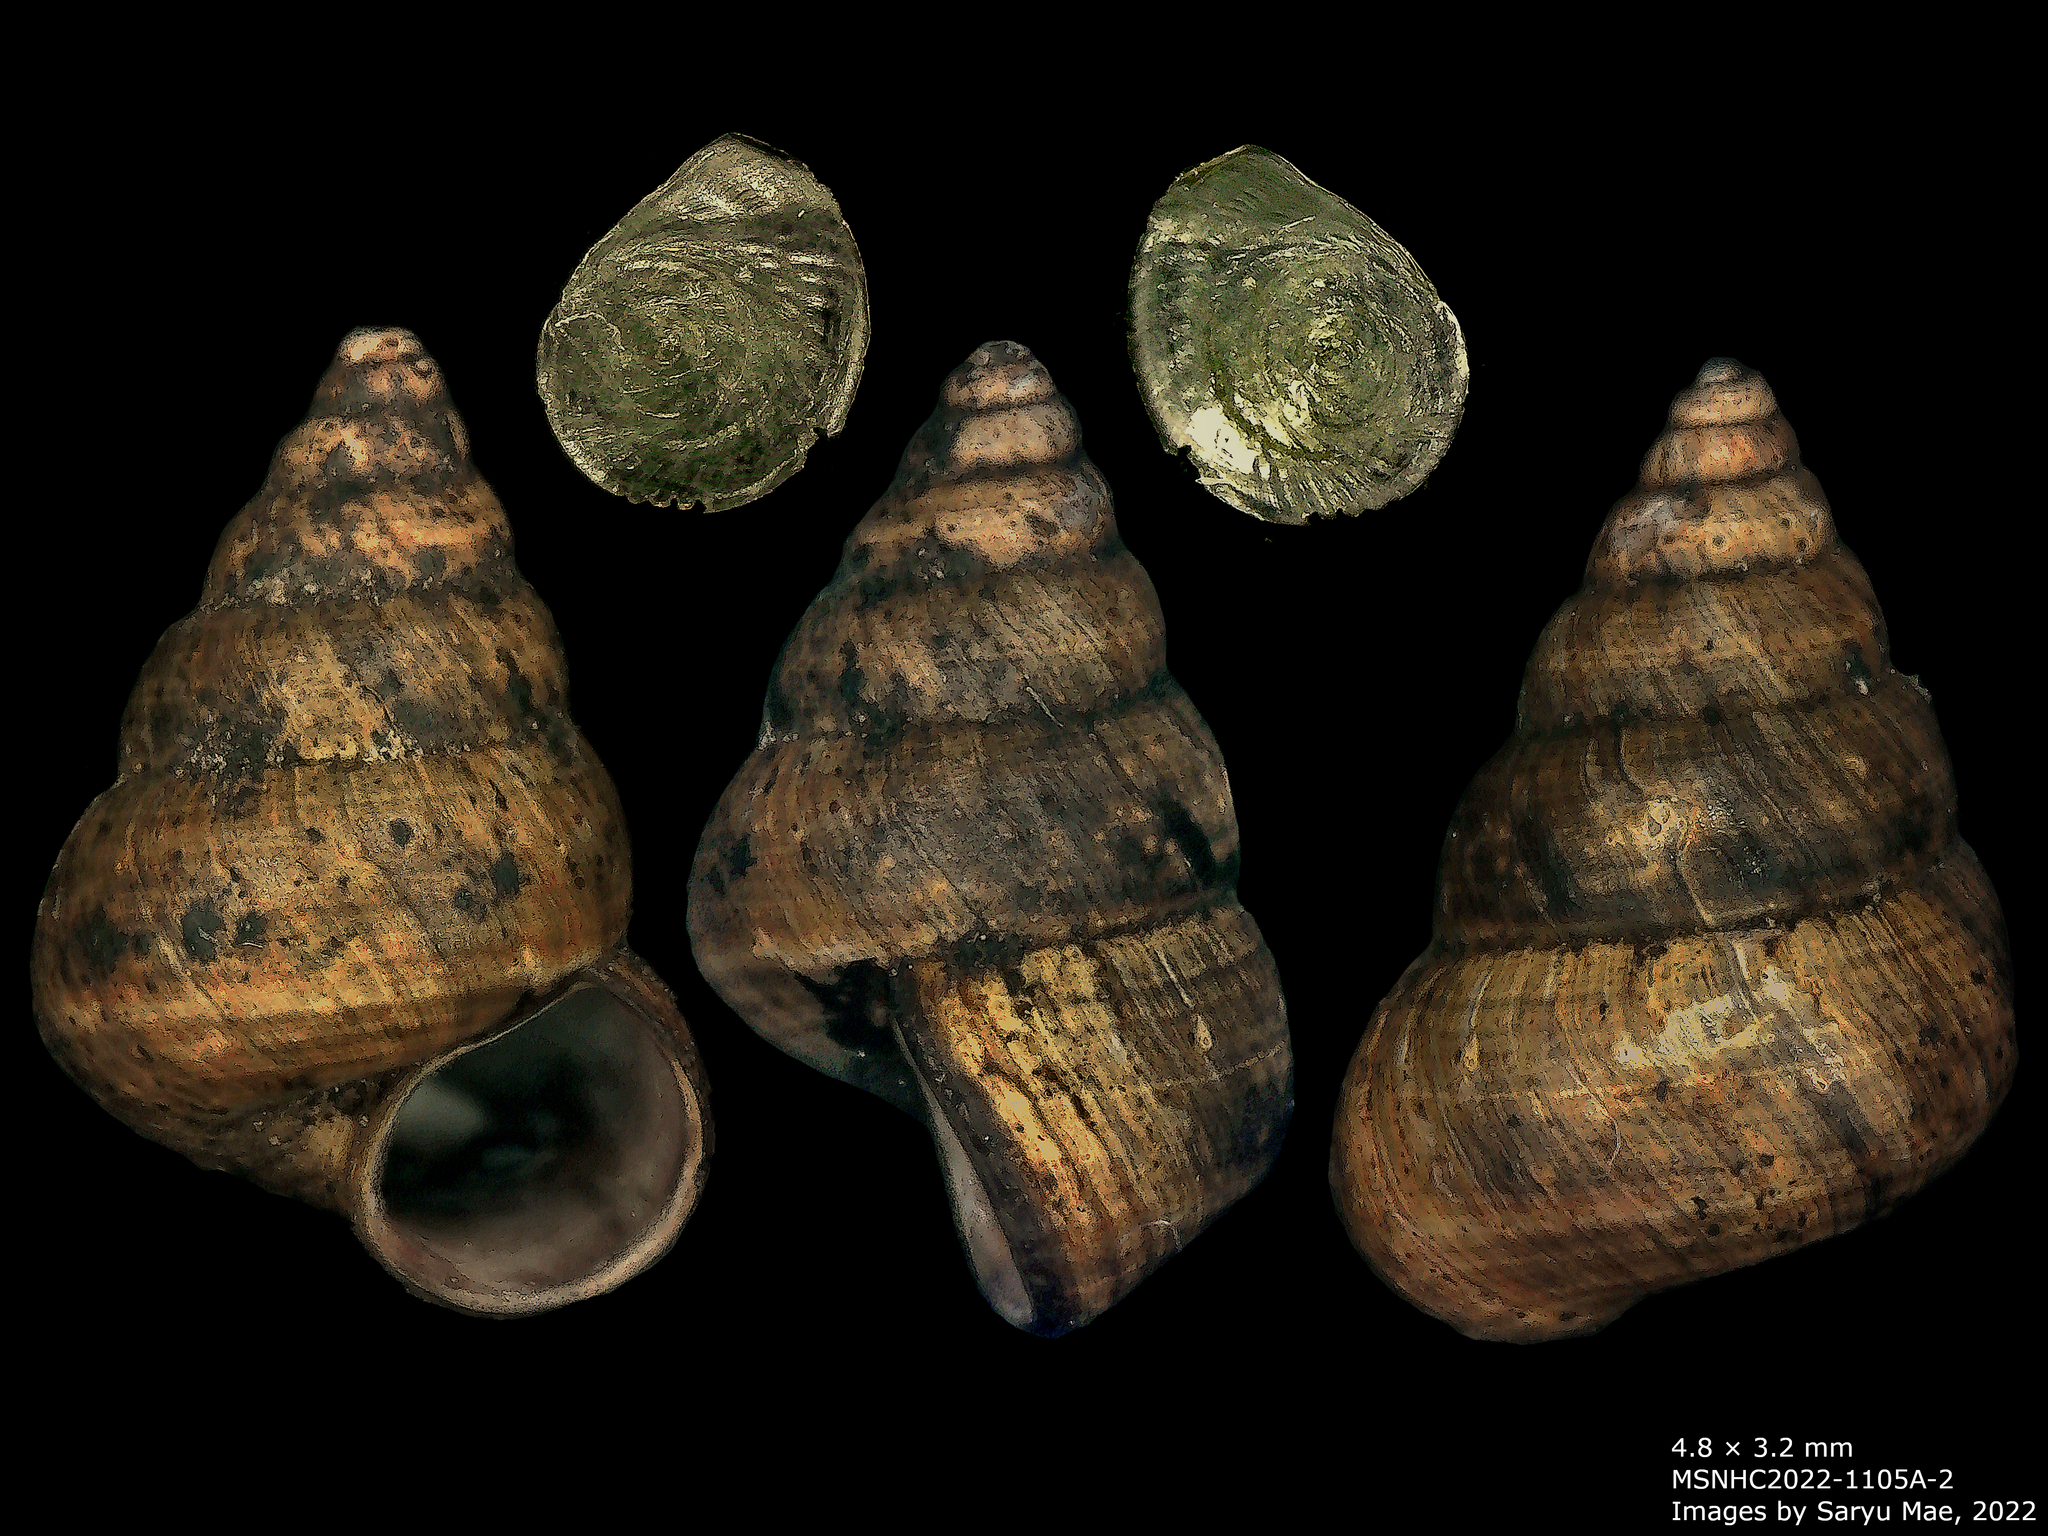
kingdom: Animalia
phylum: Mollusca
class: Gastropoda
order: Architaenioglossa
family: Pupinidae
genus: Cytora
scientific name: Cytora pallida
